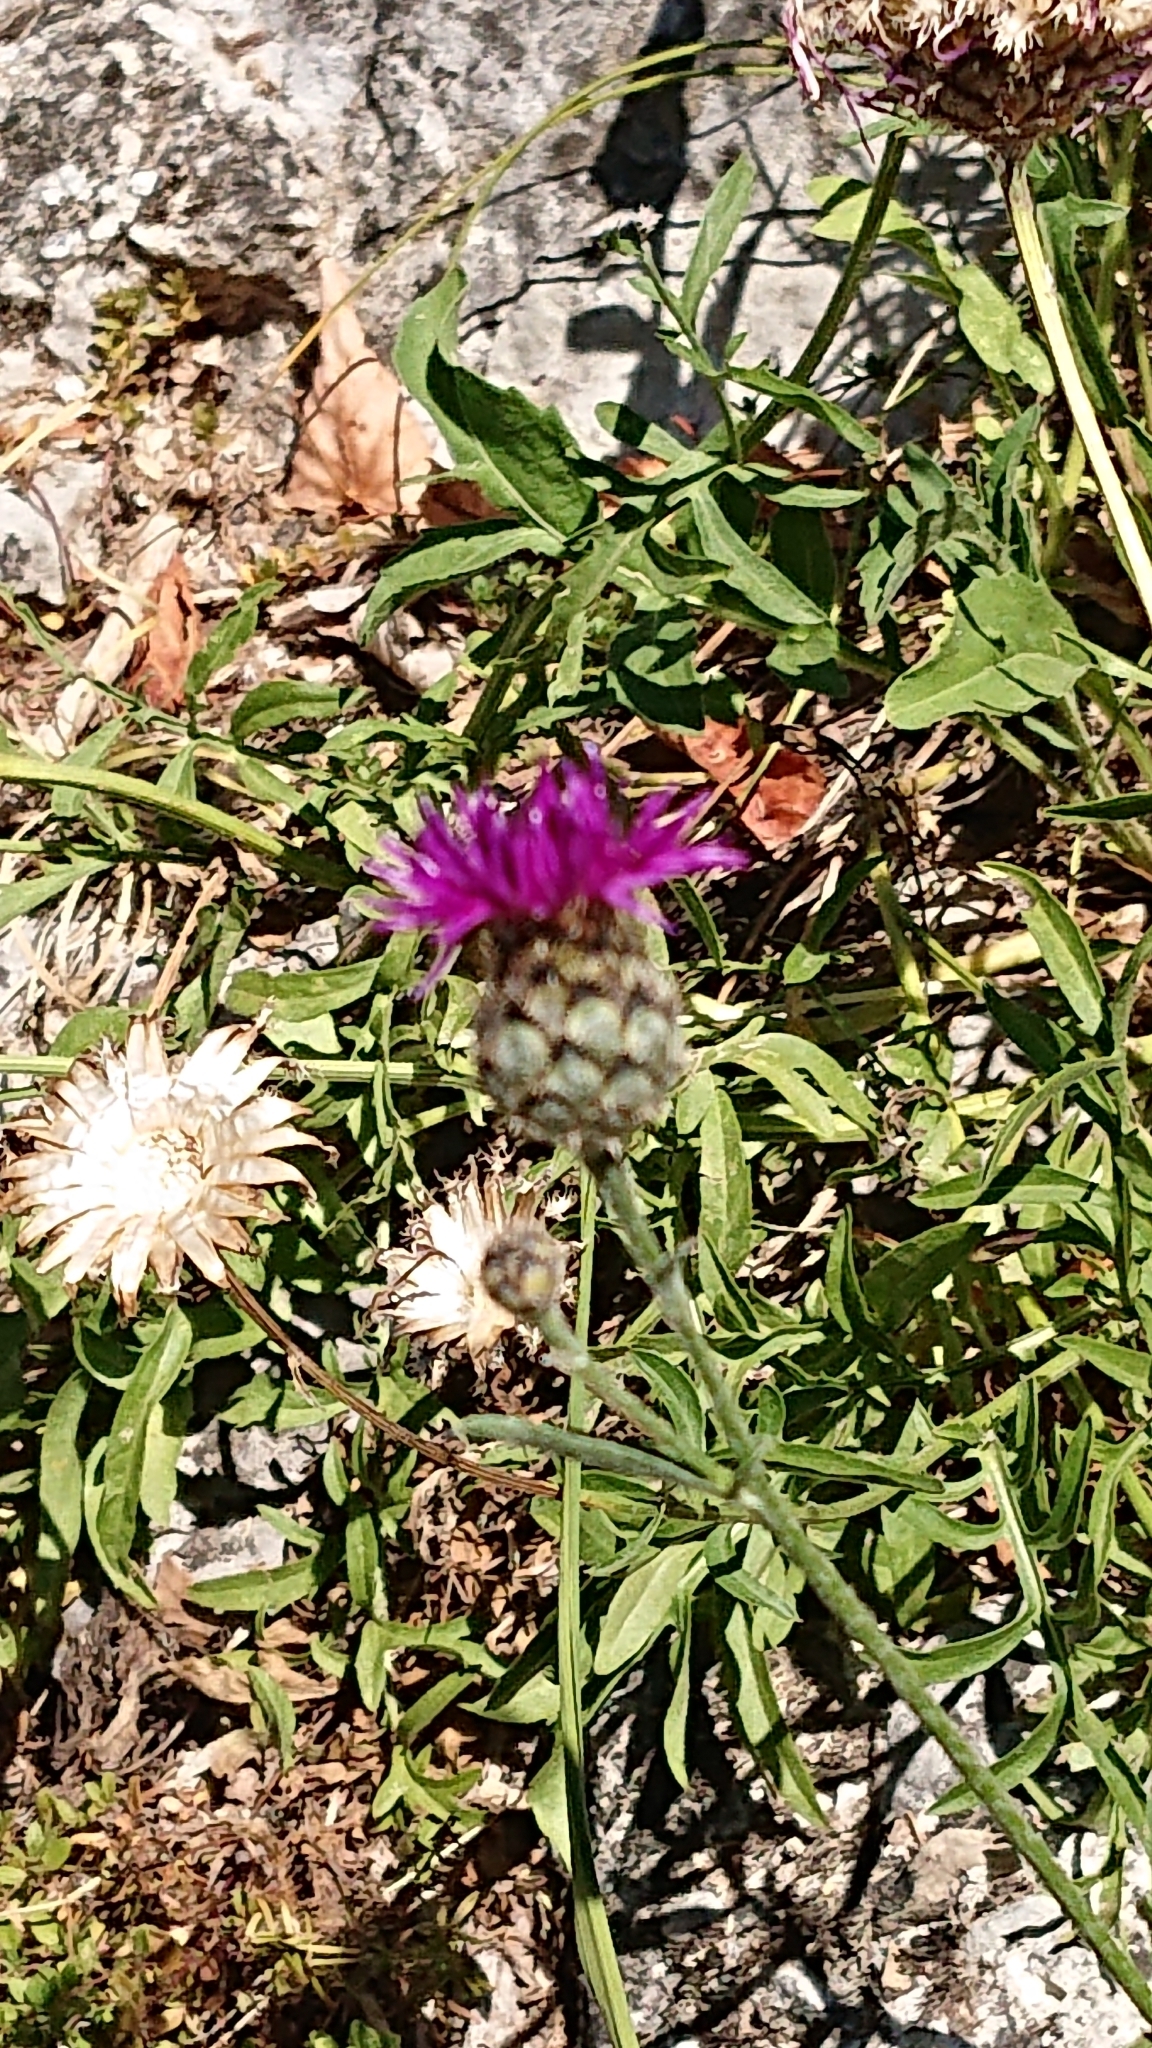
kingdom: Plantae
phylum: Tracheophyta
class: Magnoliopsida
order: Asterales
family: Asteraceae
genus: Centaurea
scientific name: Centaurea scabiosa
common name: Greater knapweed
